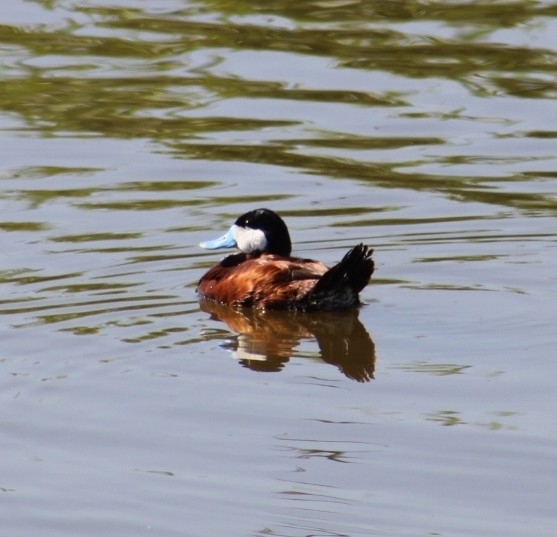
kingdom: Animalia
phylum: Chordata
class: Aves
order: Anseriformes
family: Anatidae
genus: Oxyura
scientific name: Oxyura jamaicensis
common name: Ruddy duck
